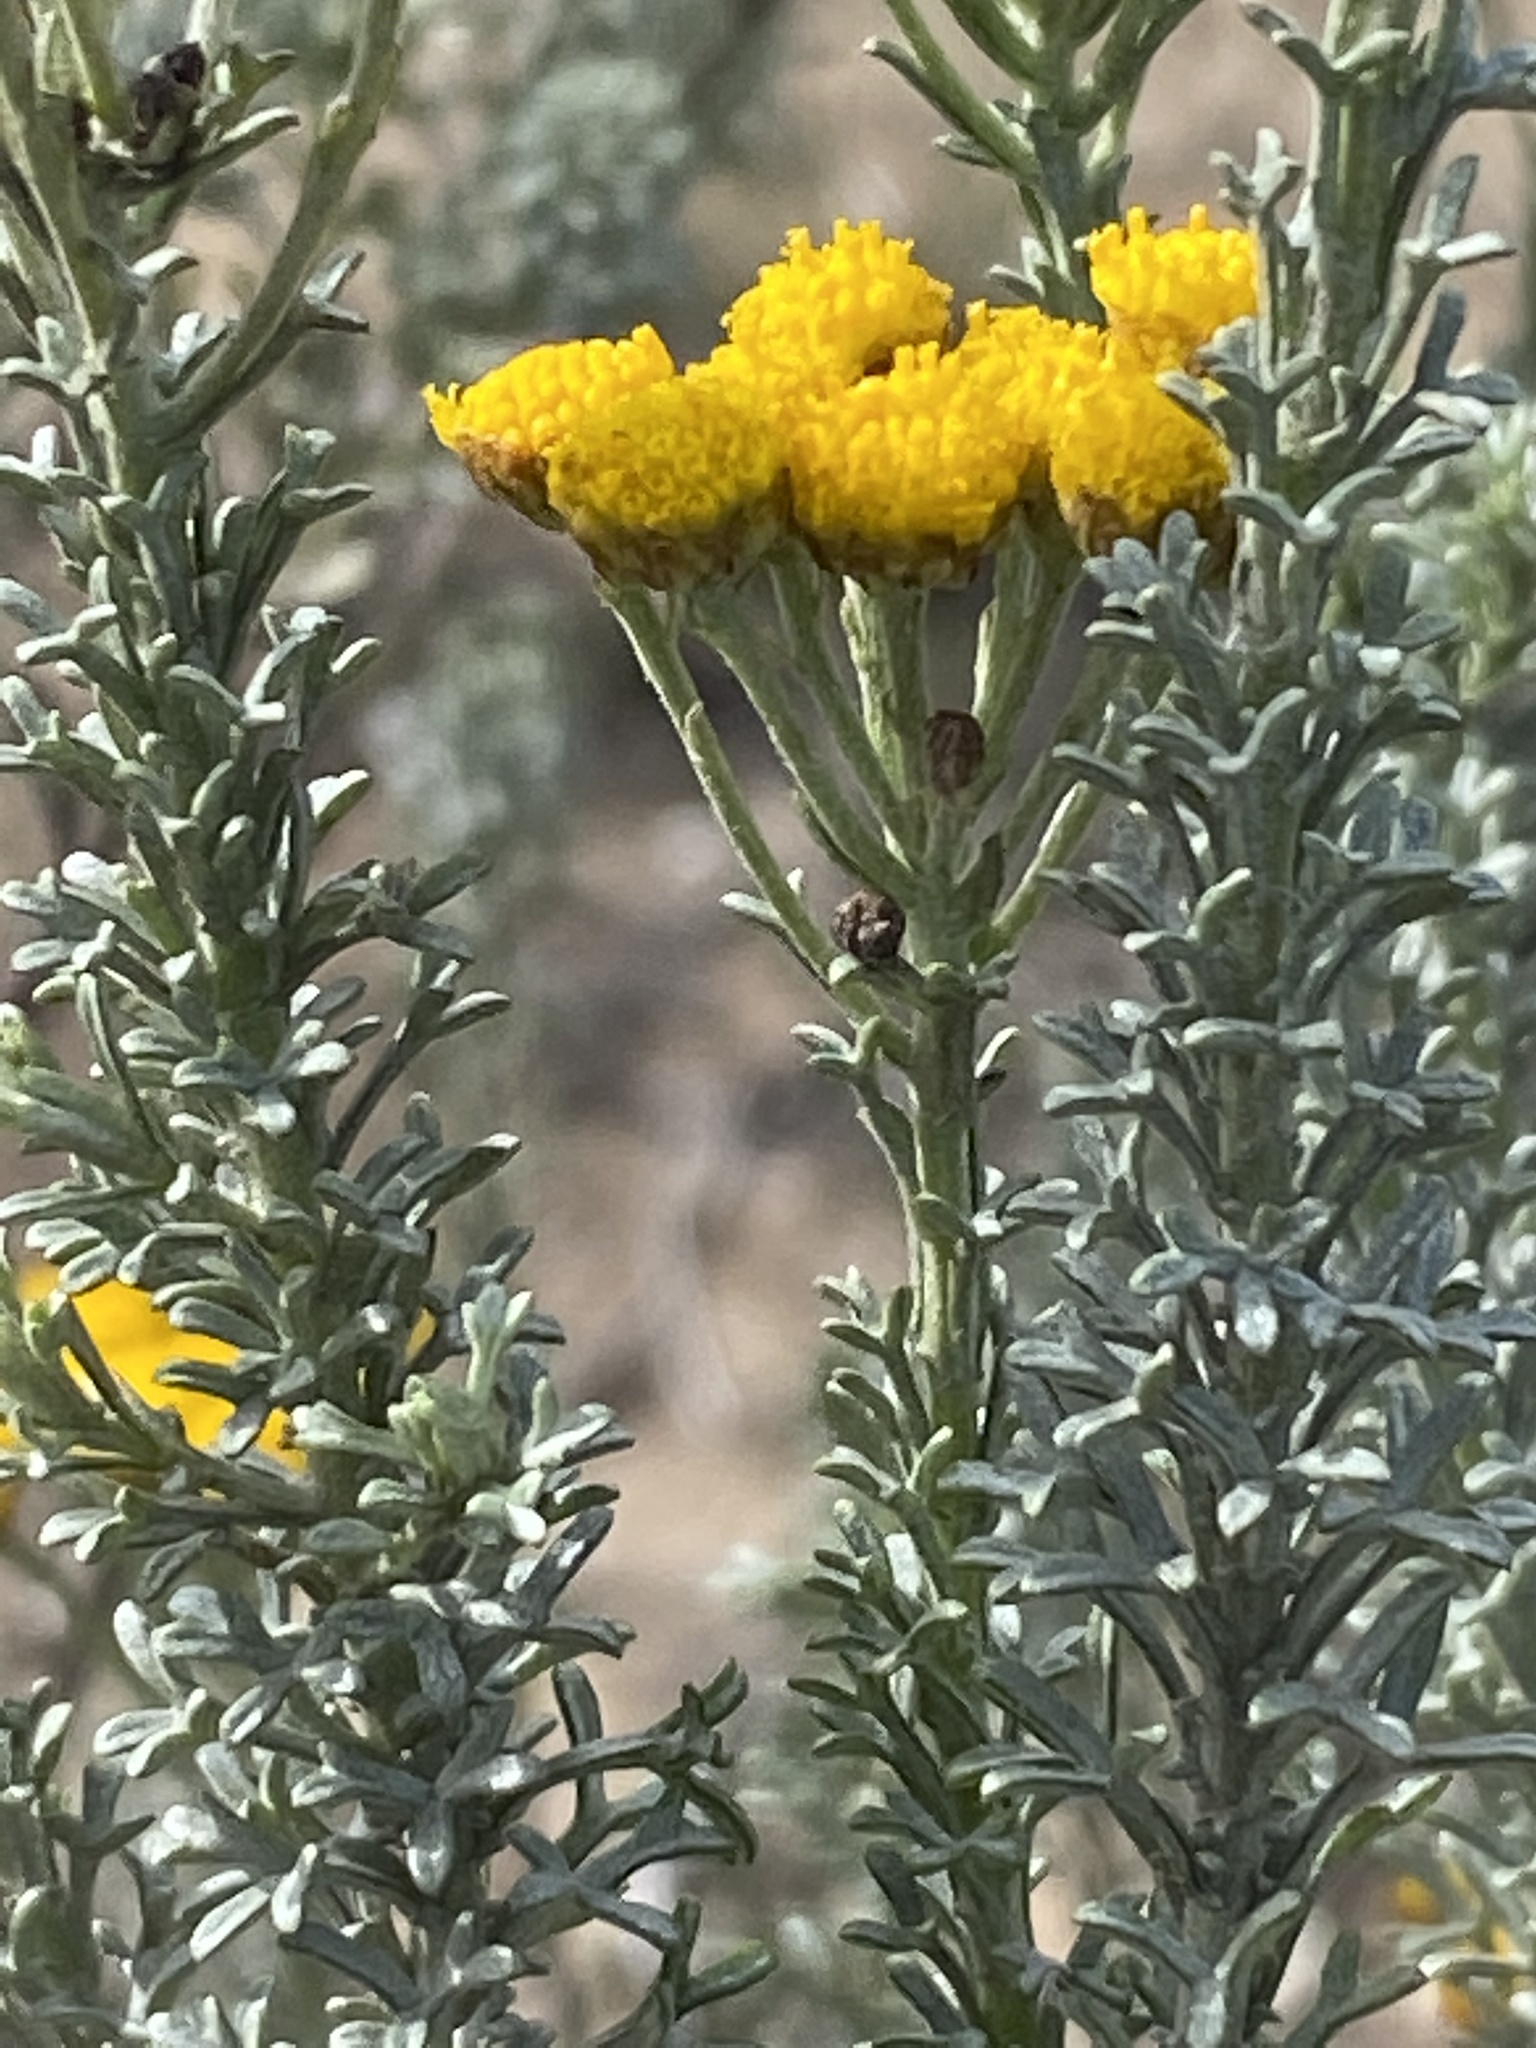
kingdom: Plantae
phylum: Tracheophyta
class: Magnoliopsida
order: Asterales
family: Asteraceae
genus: Pentzia
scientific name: Pentzia trifida
